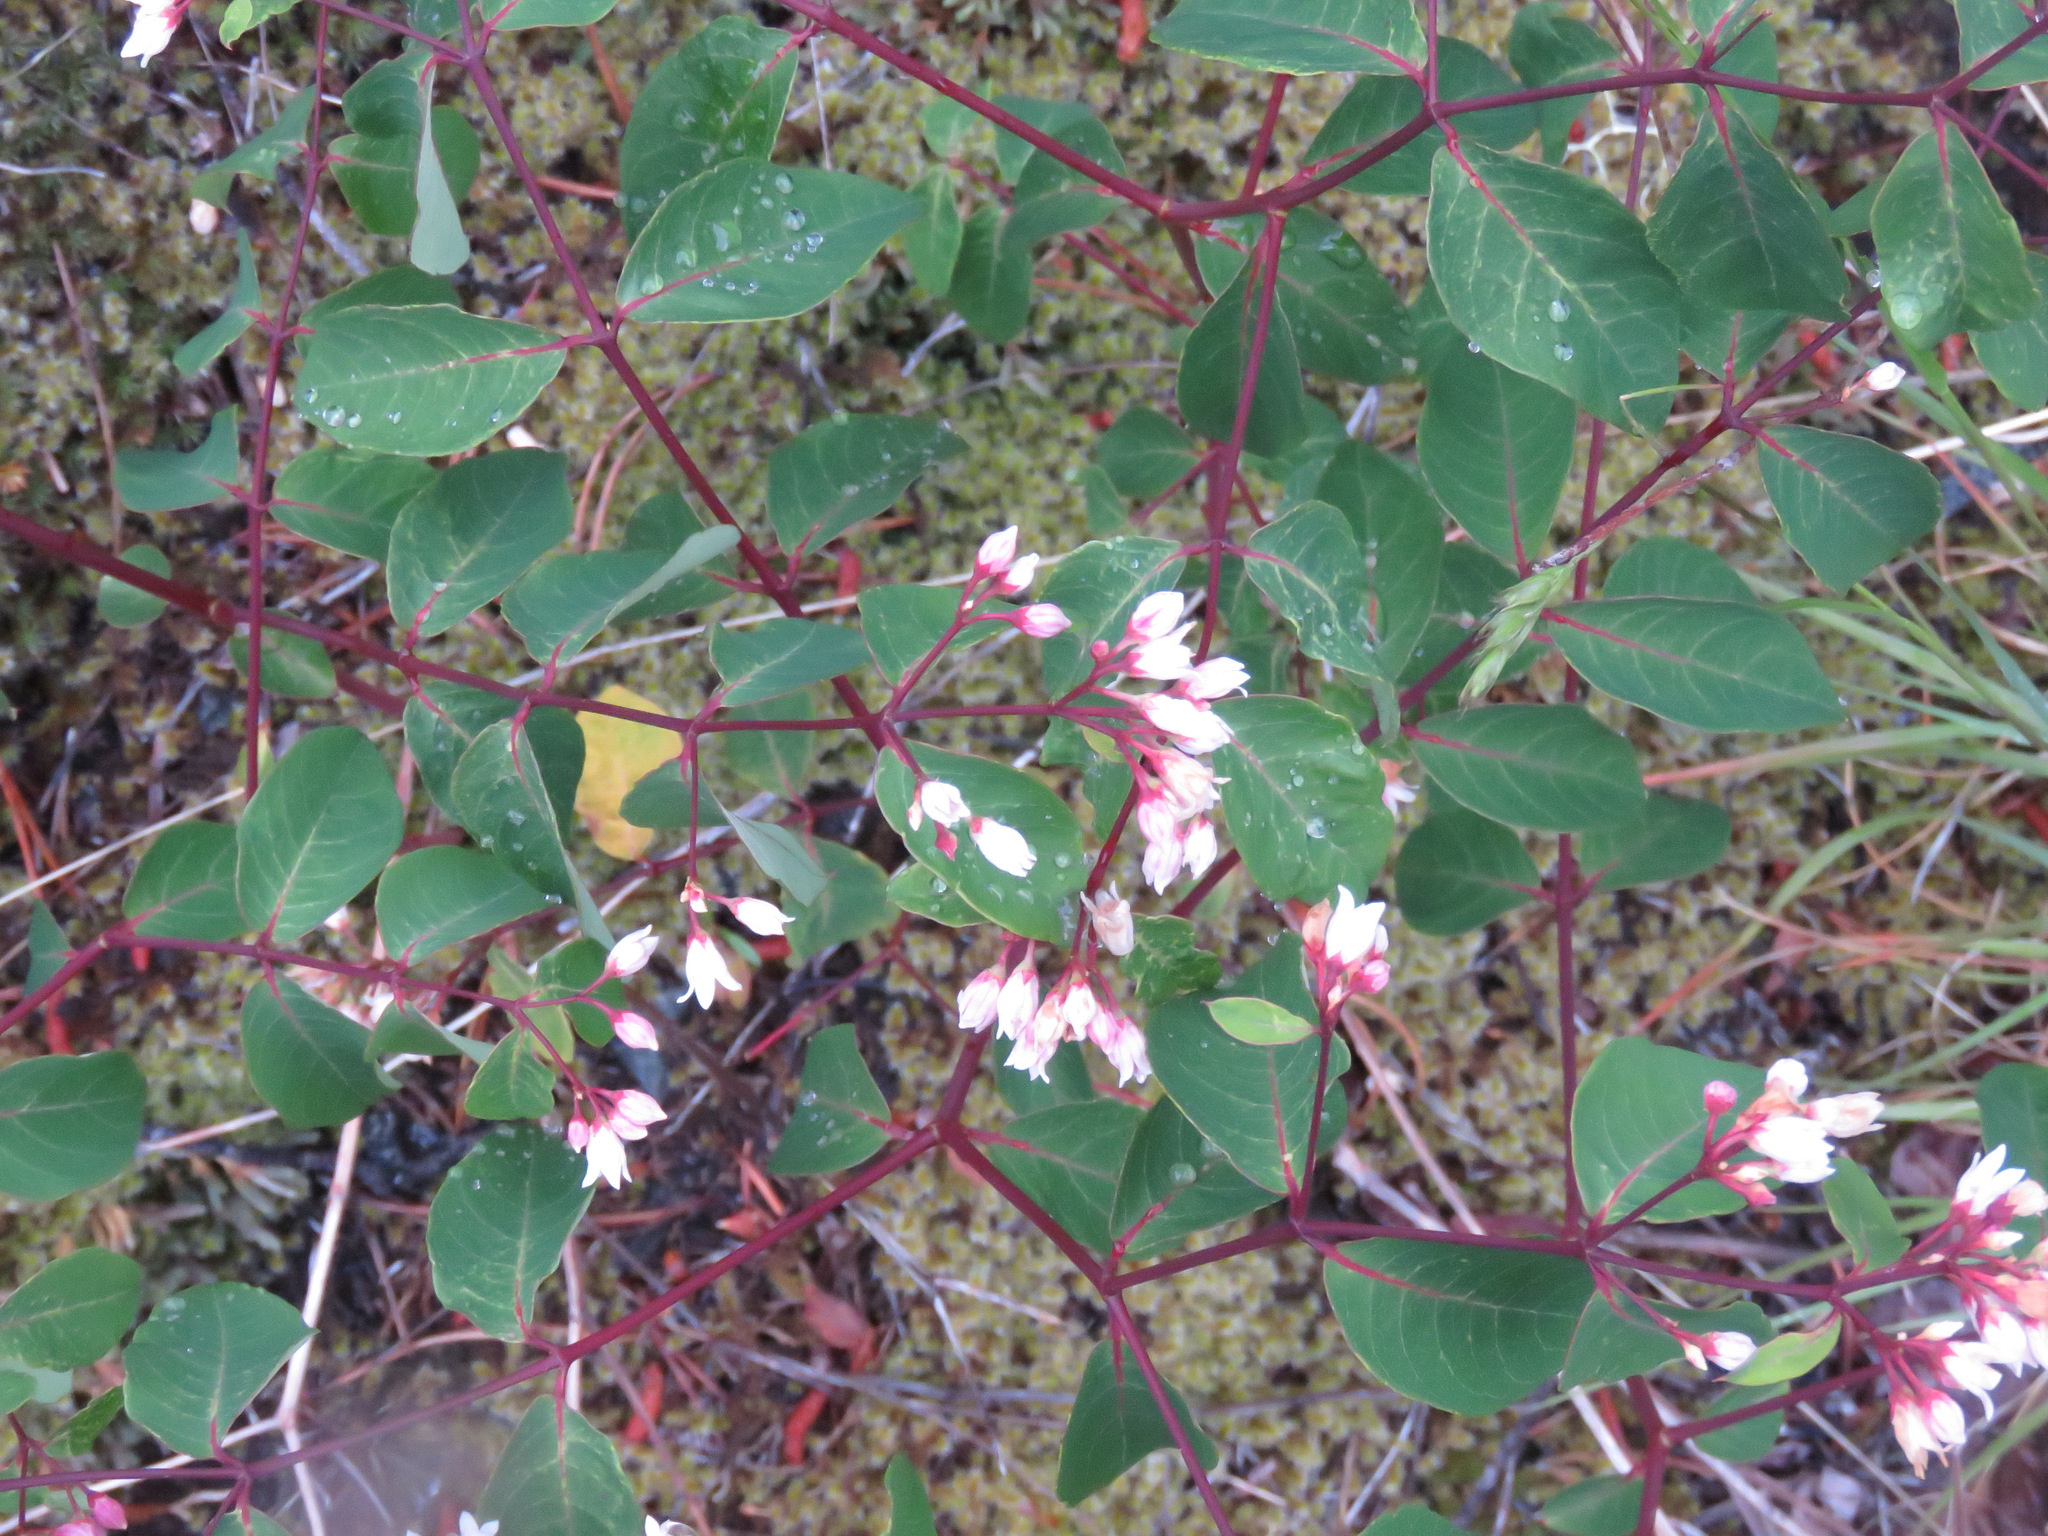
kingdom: Plantae
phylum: Tracheophyta
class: Magnoliopsida
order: Gentianales
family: Apocynaceae
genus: Apocynum
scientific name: Apocynum androsaemifolium
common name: Spreading dogbane
